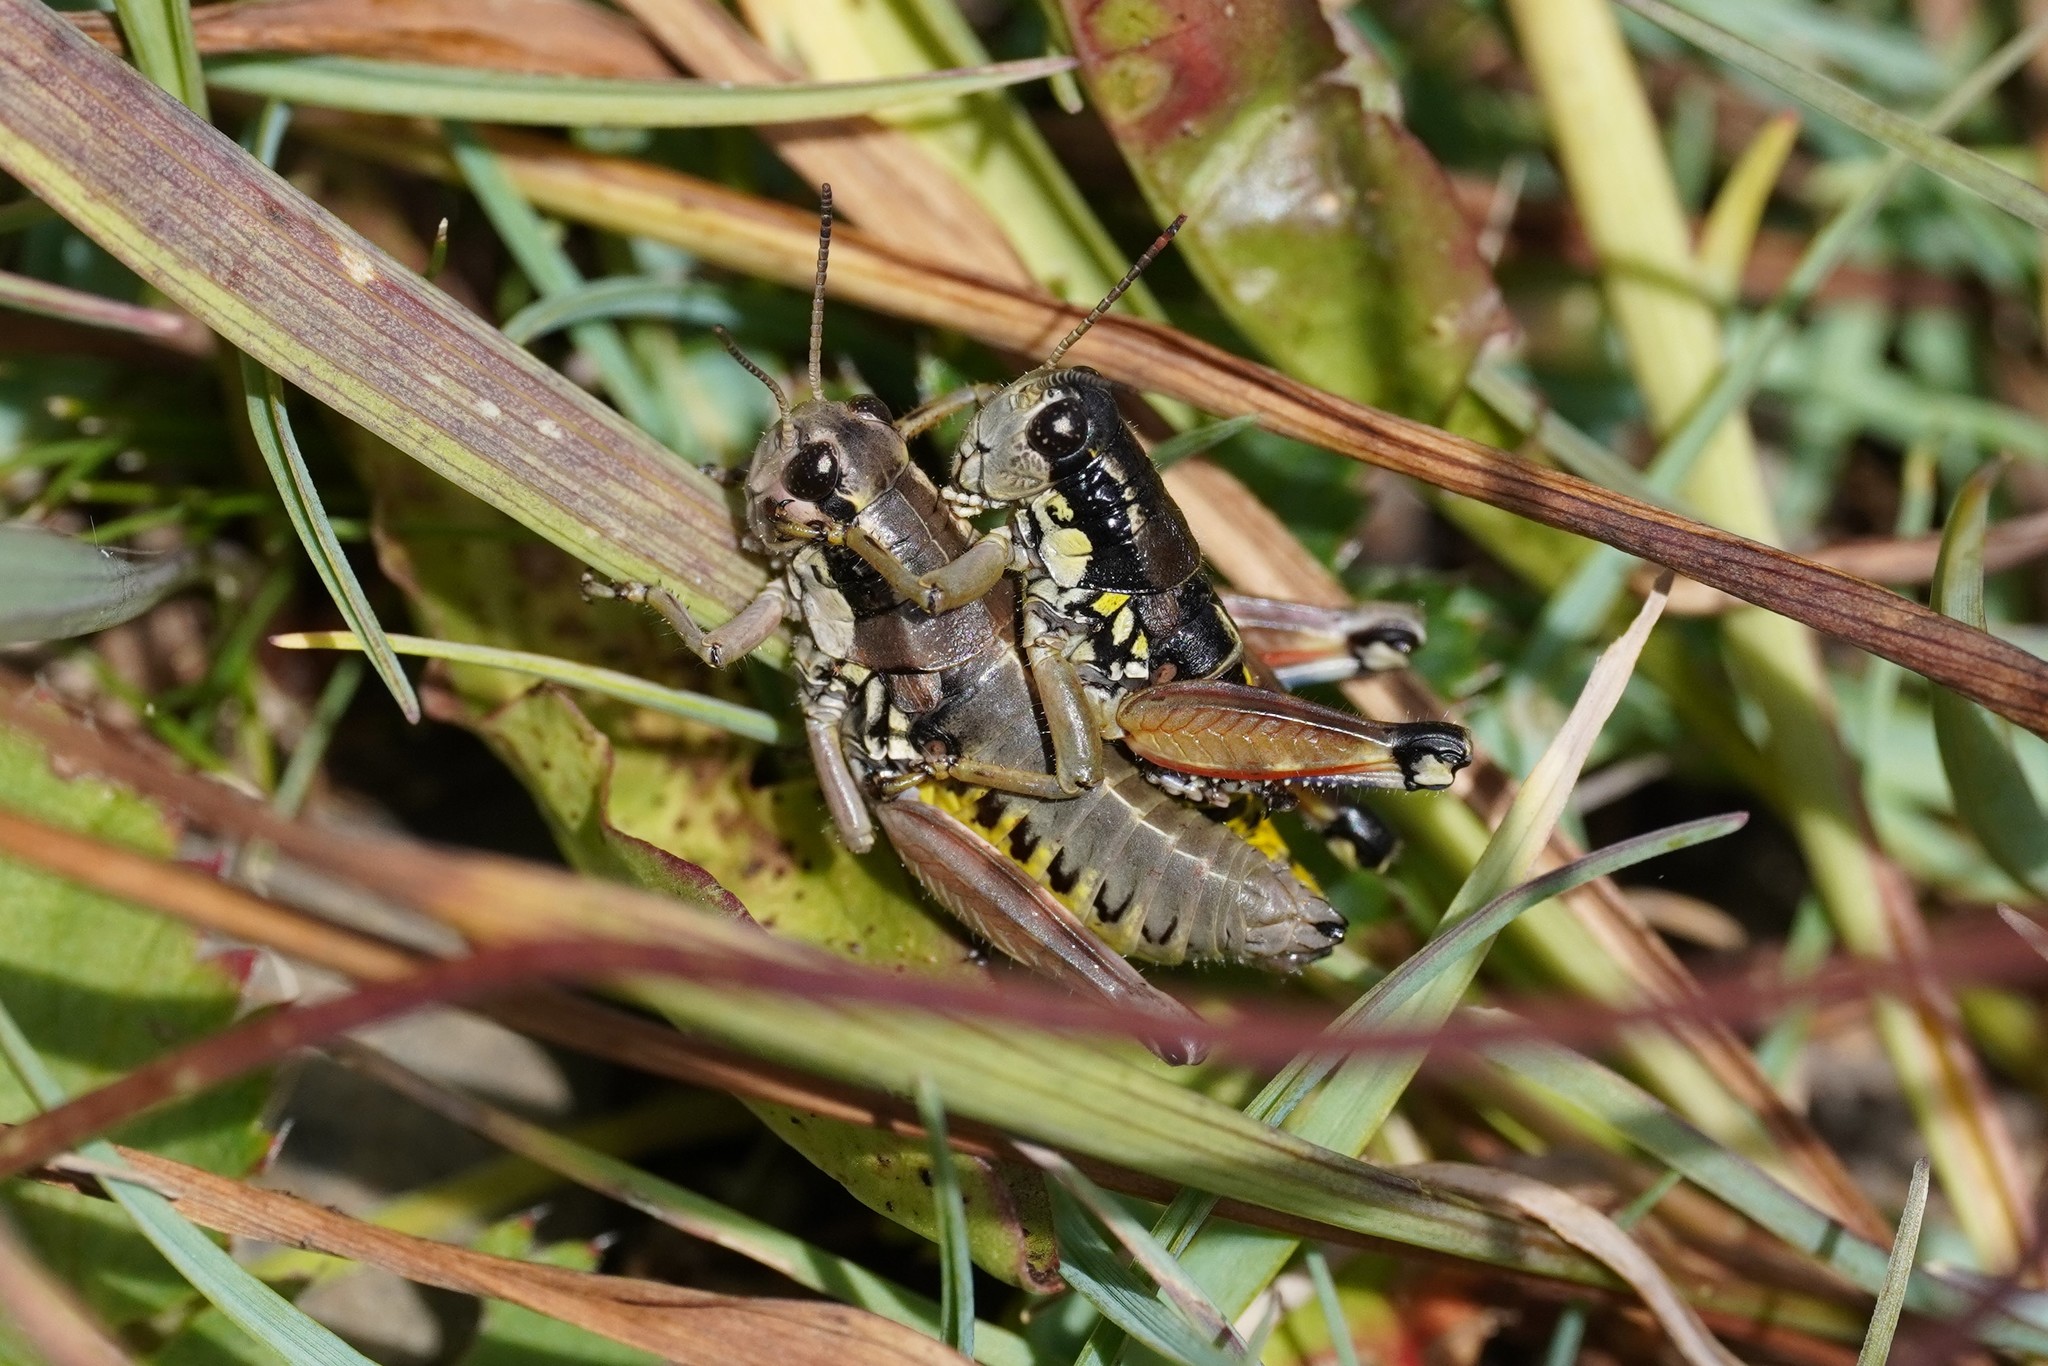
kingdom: Animalia
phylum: Arthropoda
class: Insecta
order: Orthoptera
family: Acrididae
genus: Podisma
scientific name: Podisma dechambrei
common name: Alpes-maritimes mountain grasshopper
